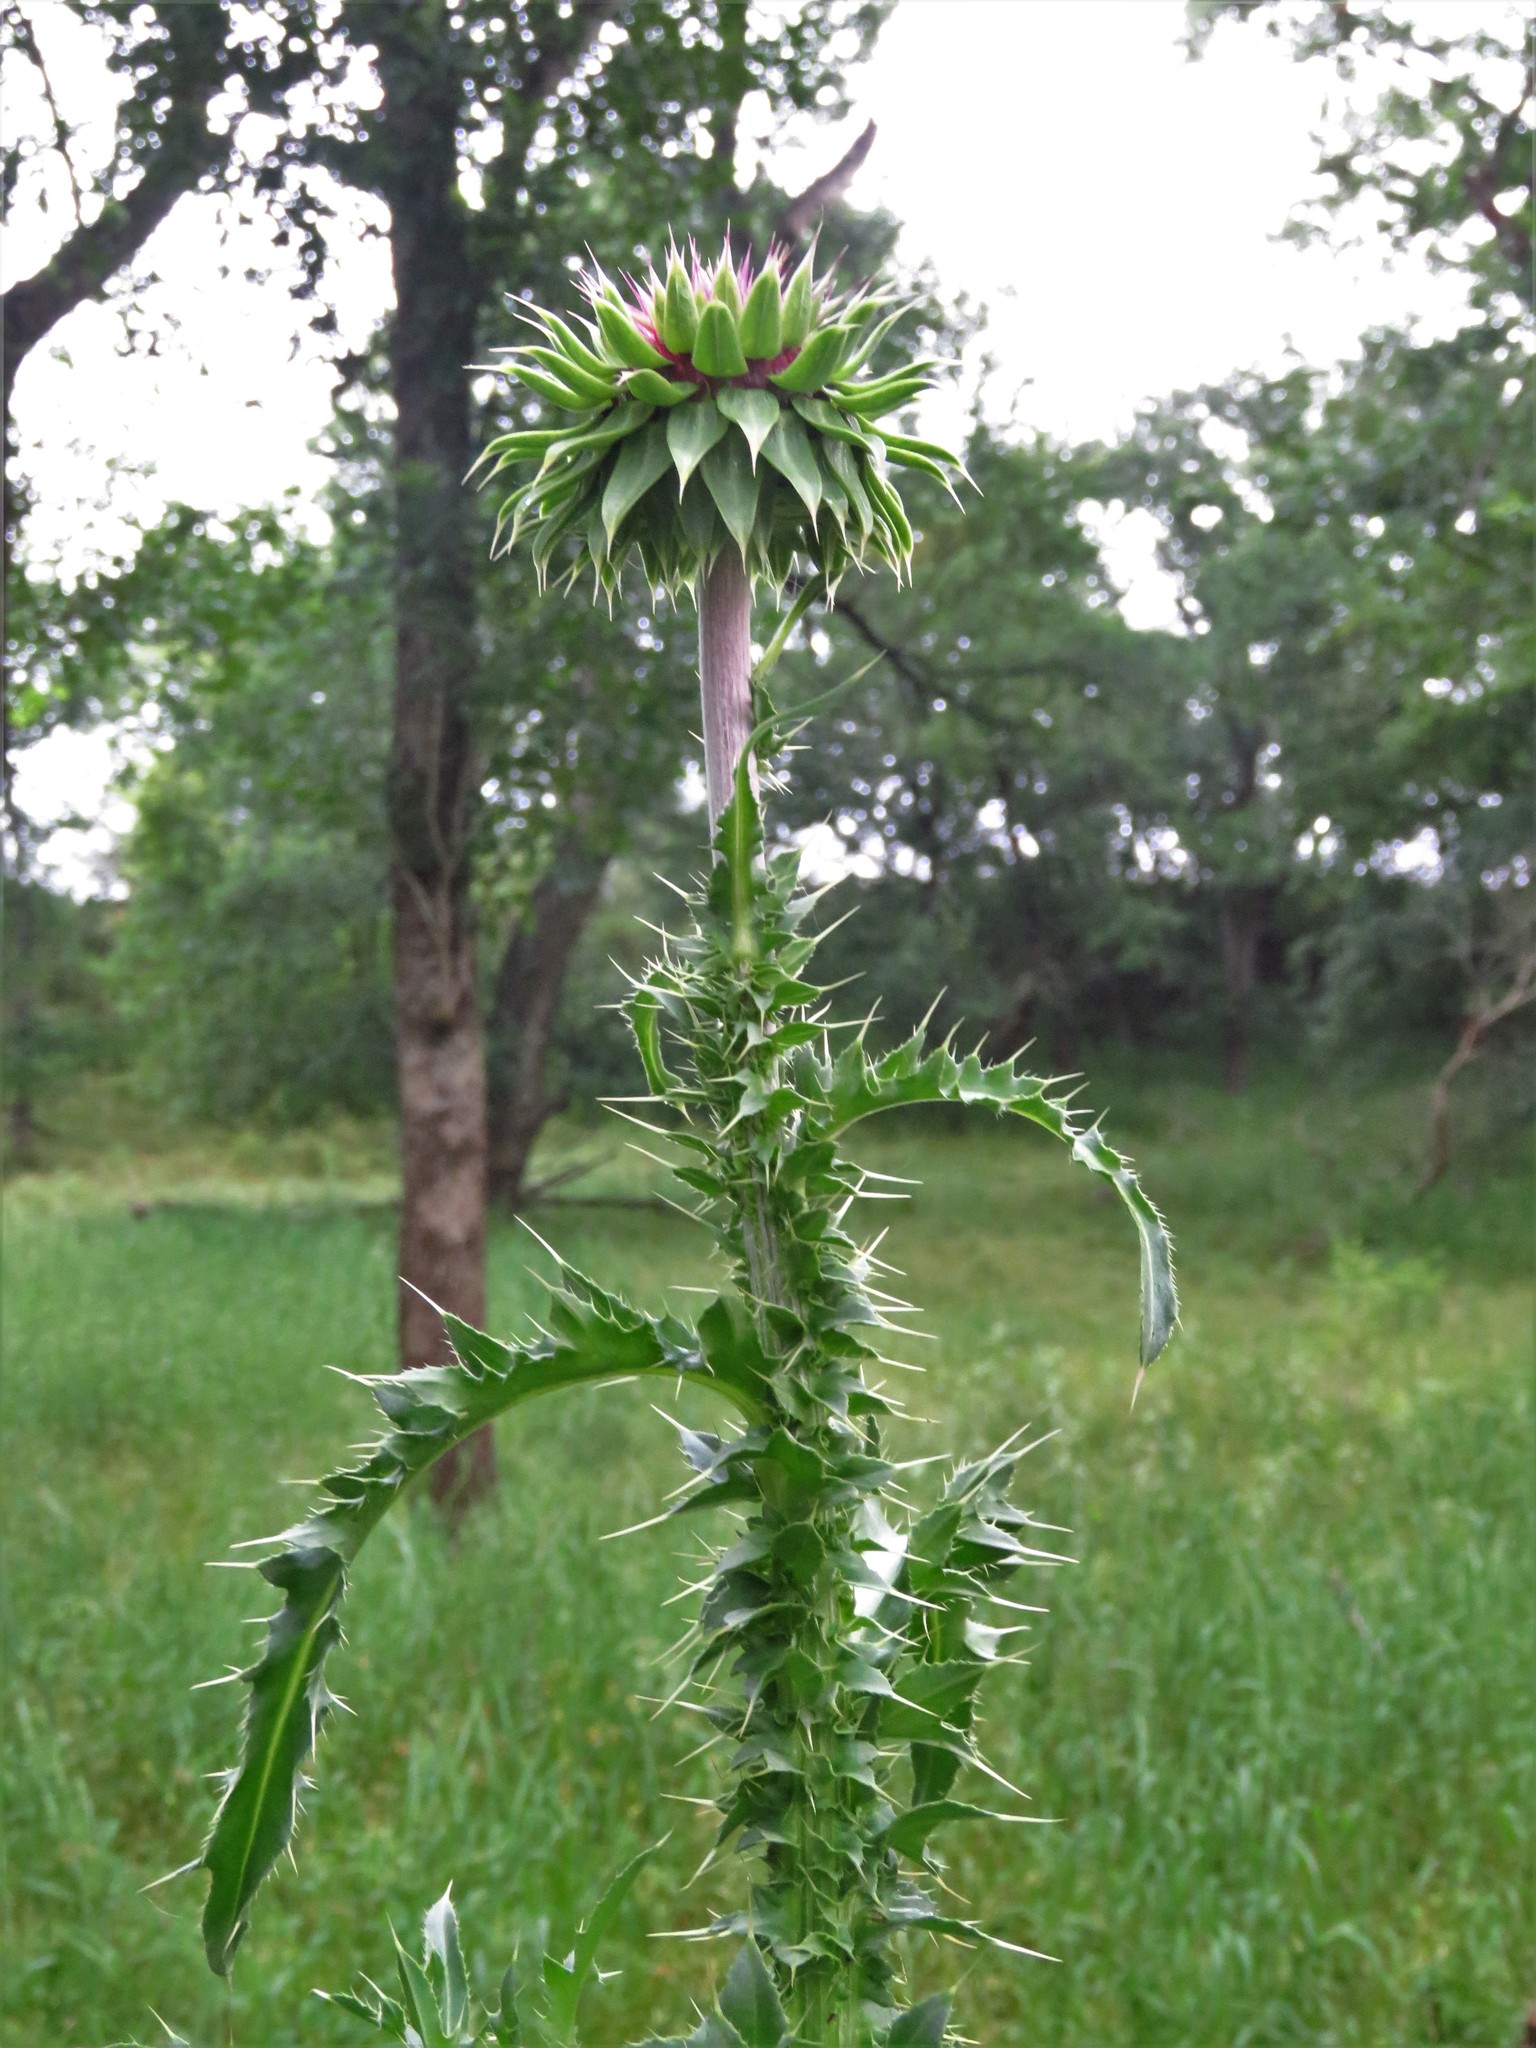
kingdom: Plantae
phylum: Tracheophyta
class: Magnoliopsida
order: Asterales
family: Asteraceae
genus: Carduus
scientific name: Carduus nutans
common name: Musk thistle
